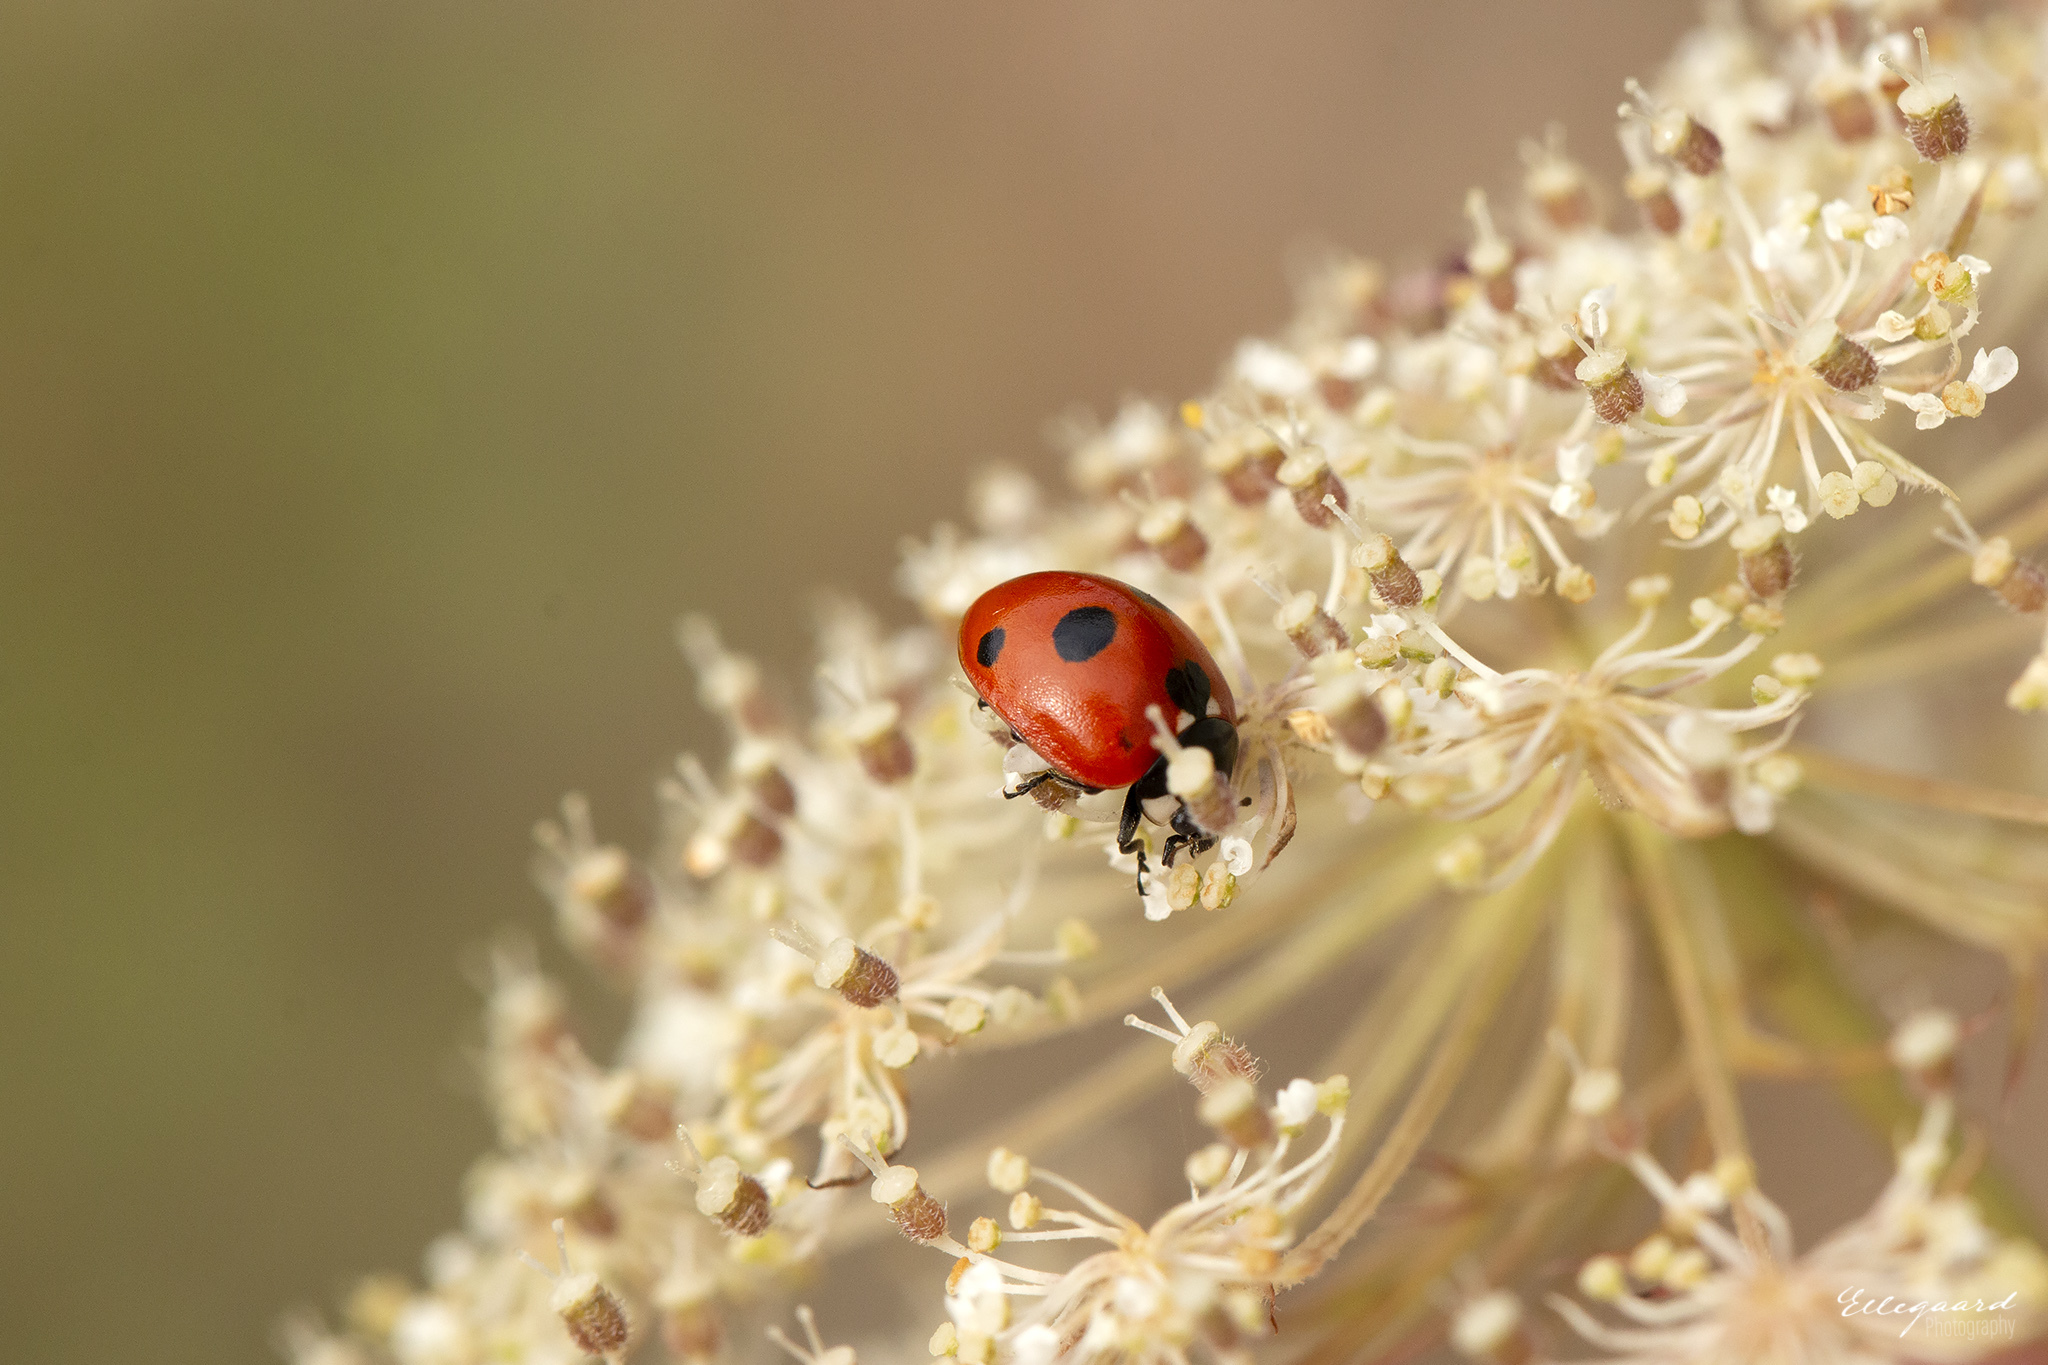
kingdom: Animalia
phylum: Arthropoda
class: Insecta
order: Coleoptera
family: Coccinellidae
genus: Coccinella
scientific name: Coccinella quinquepunctata
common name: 5-spot ladybird
